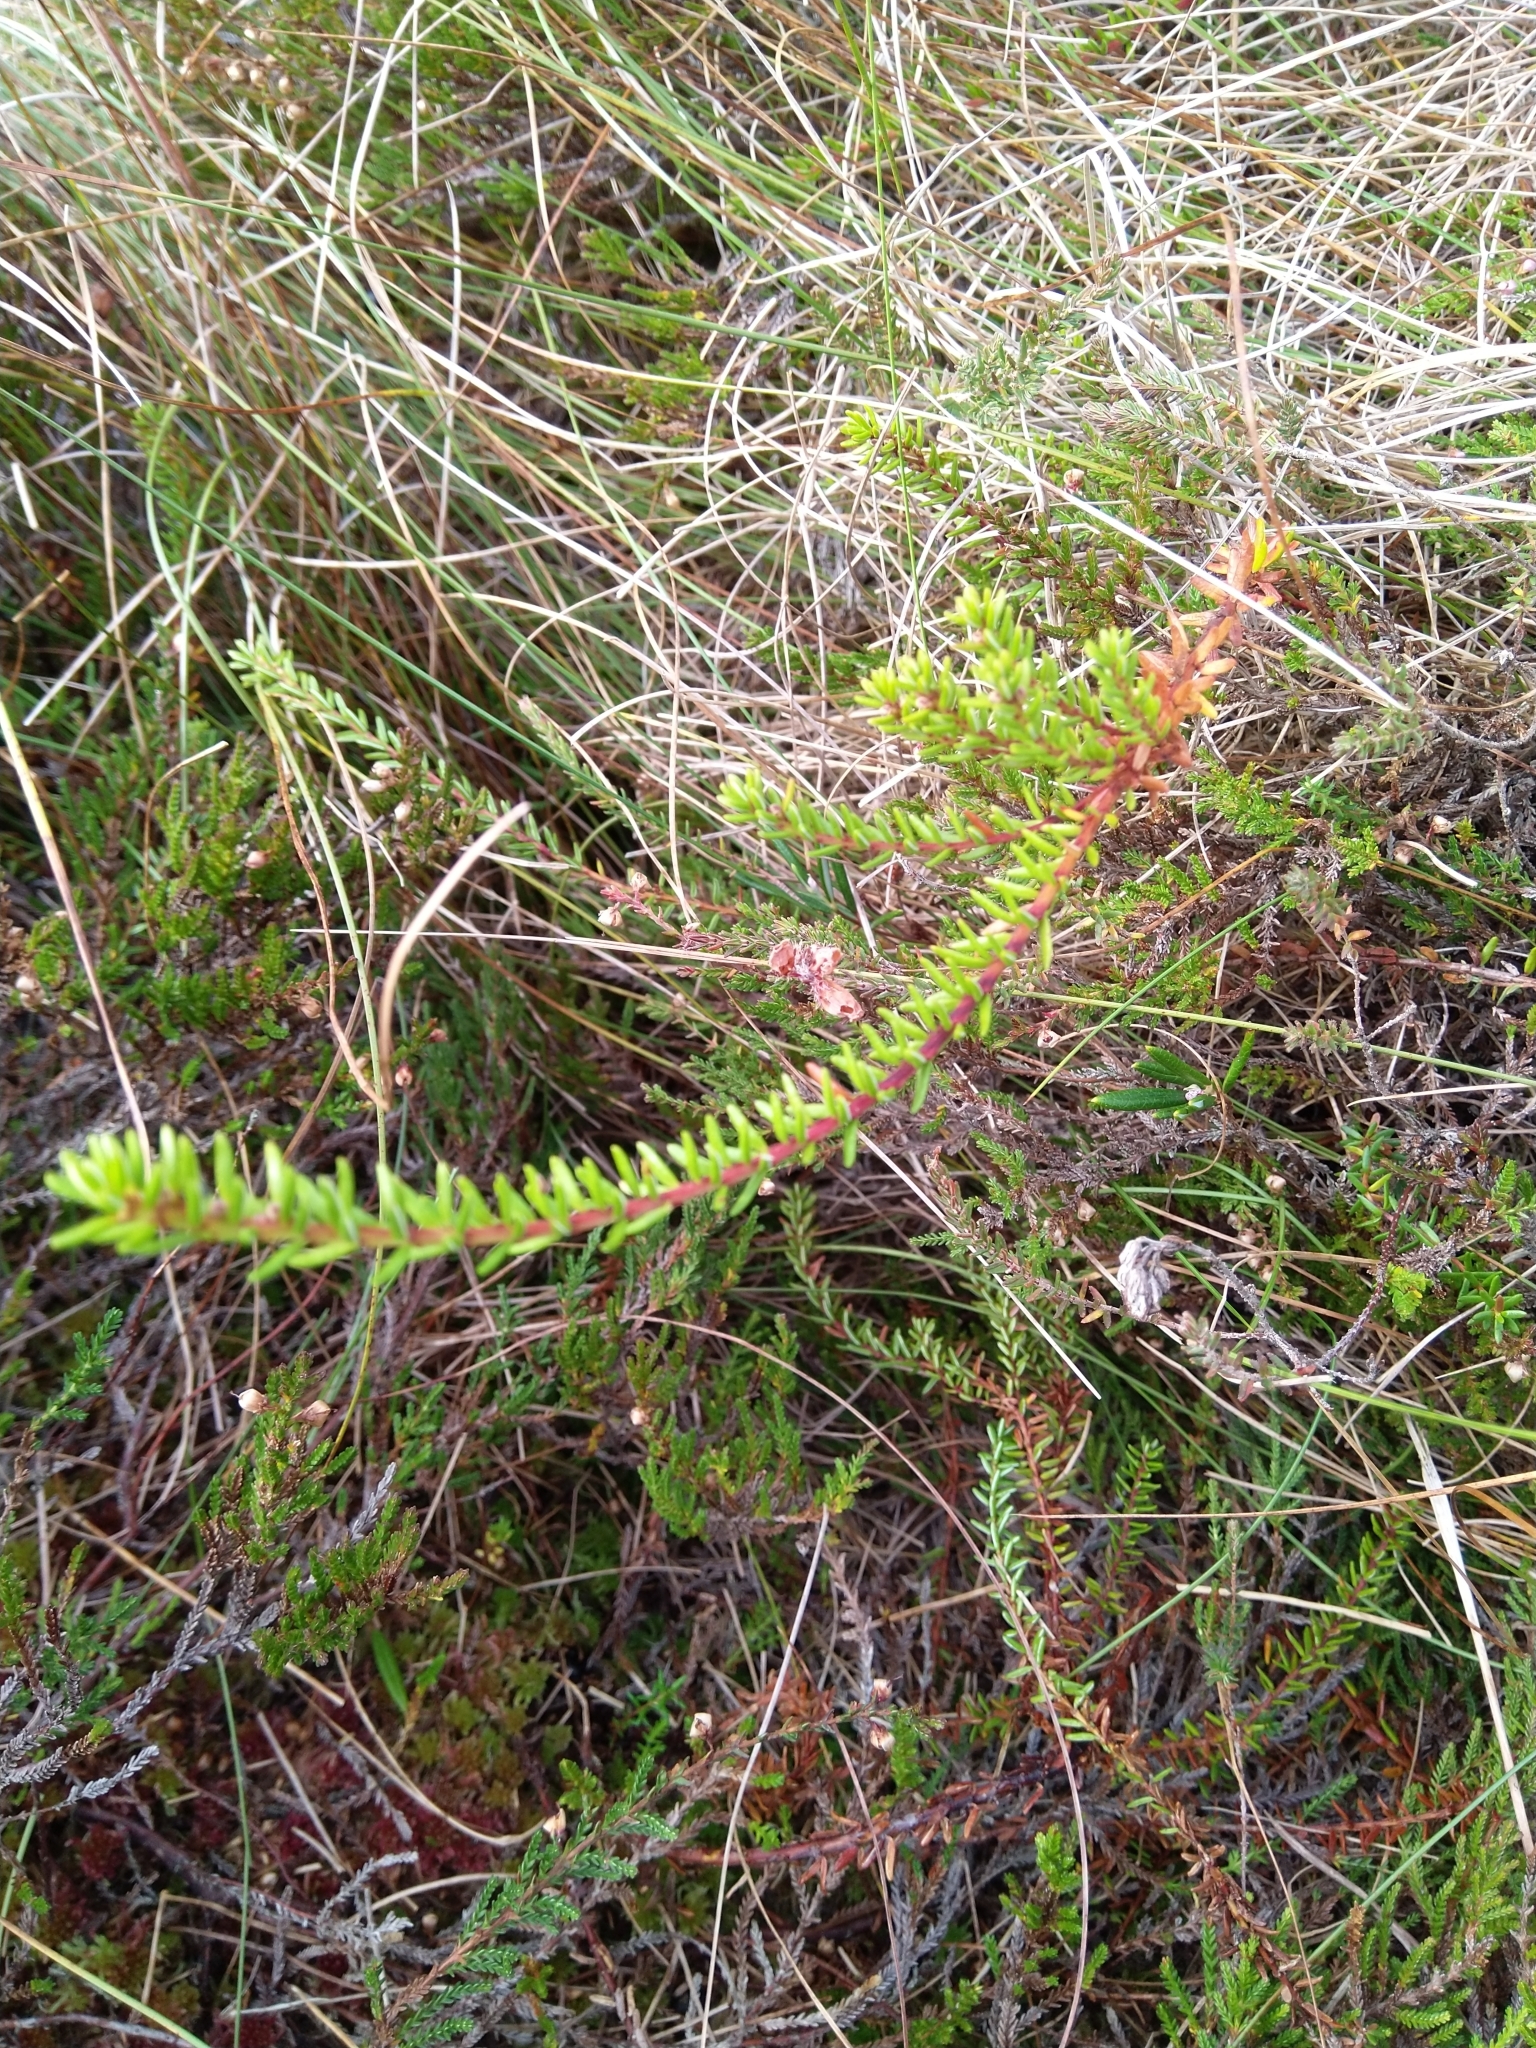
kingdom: Plantae
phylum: Tracheophyta
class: Magnoliopsida
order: Ericales
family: Ericaceae
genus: Empetrum
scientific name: Empetrum nigrum
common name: Black crowberry
